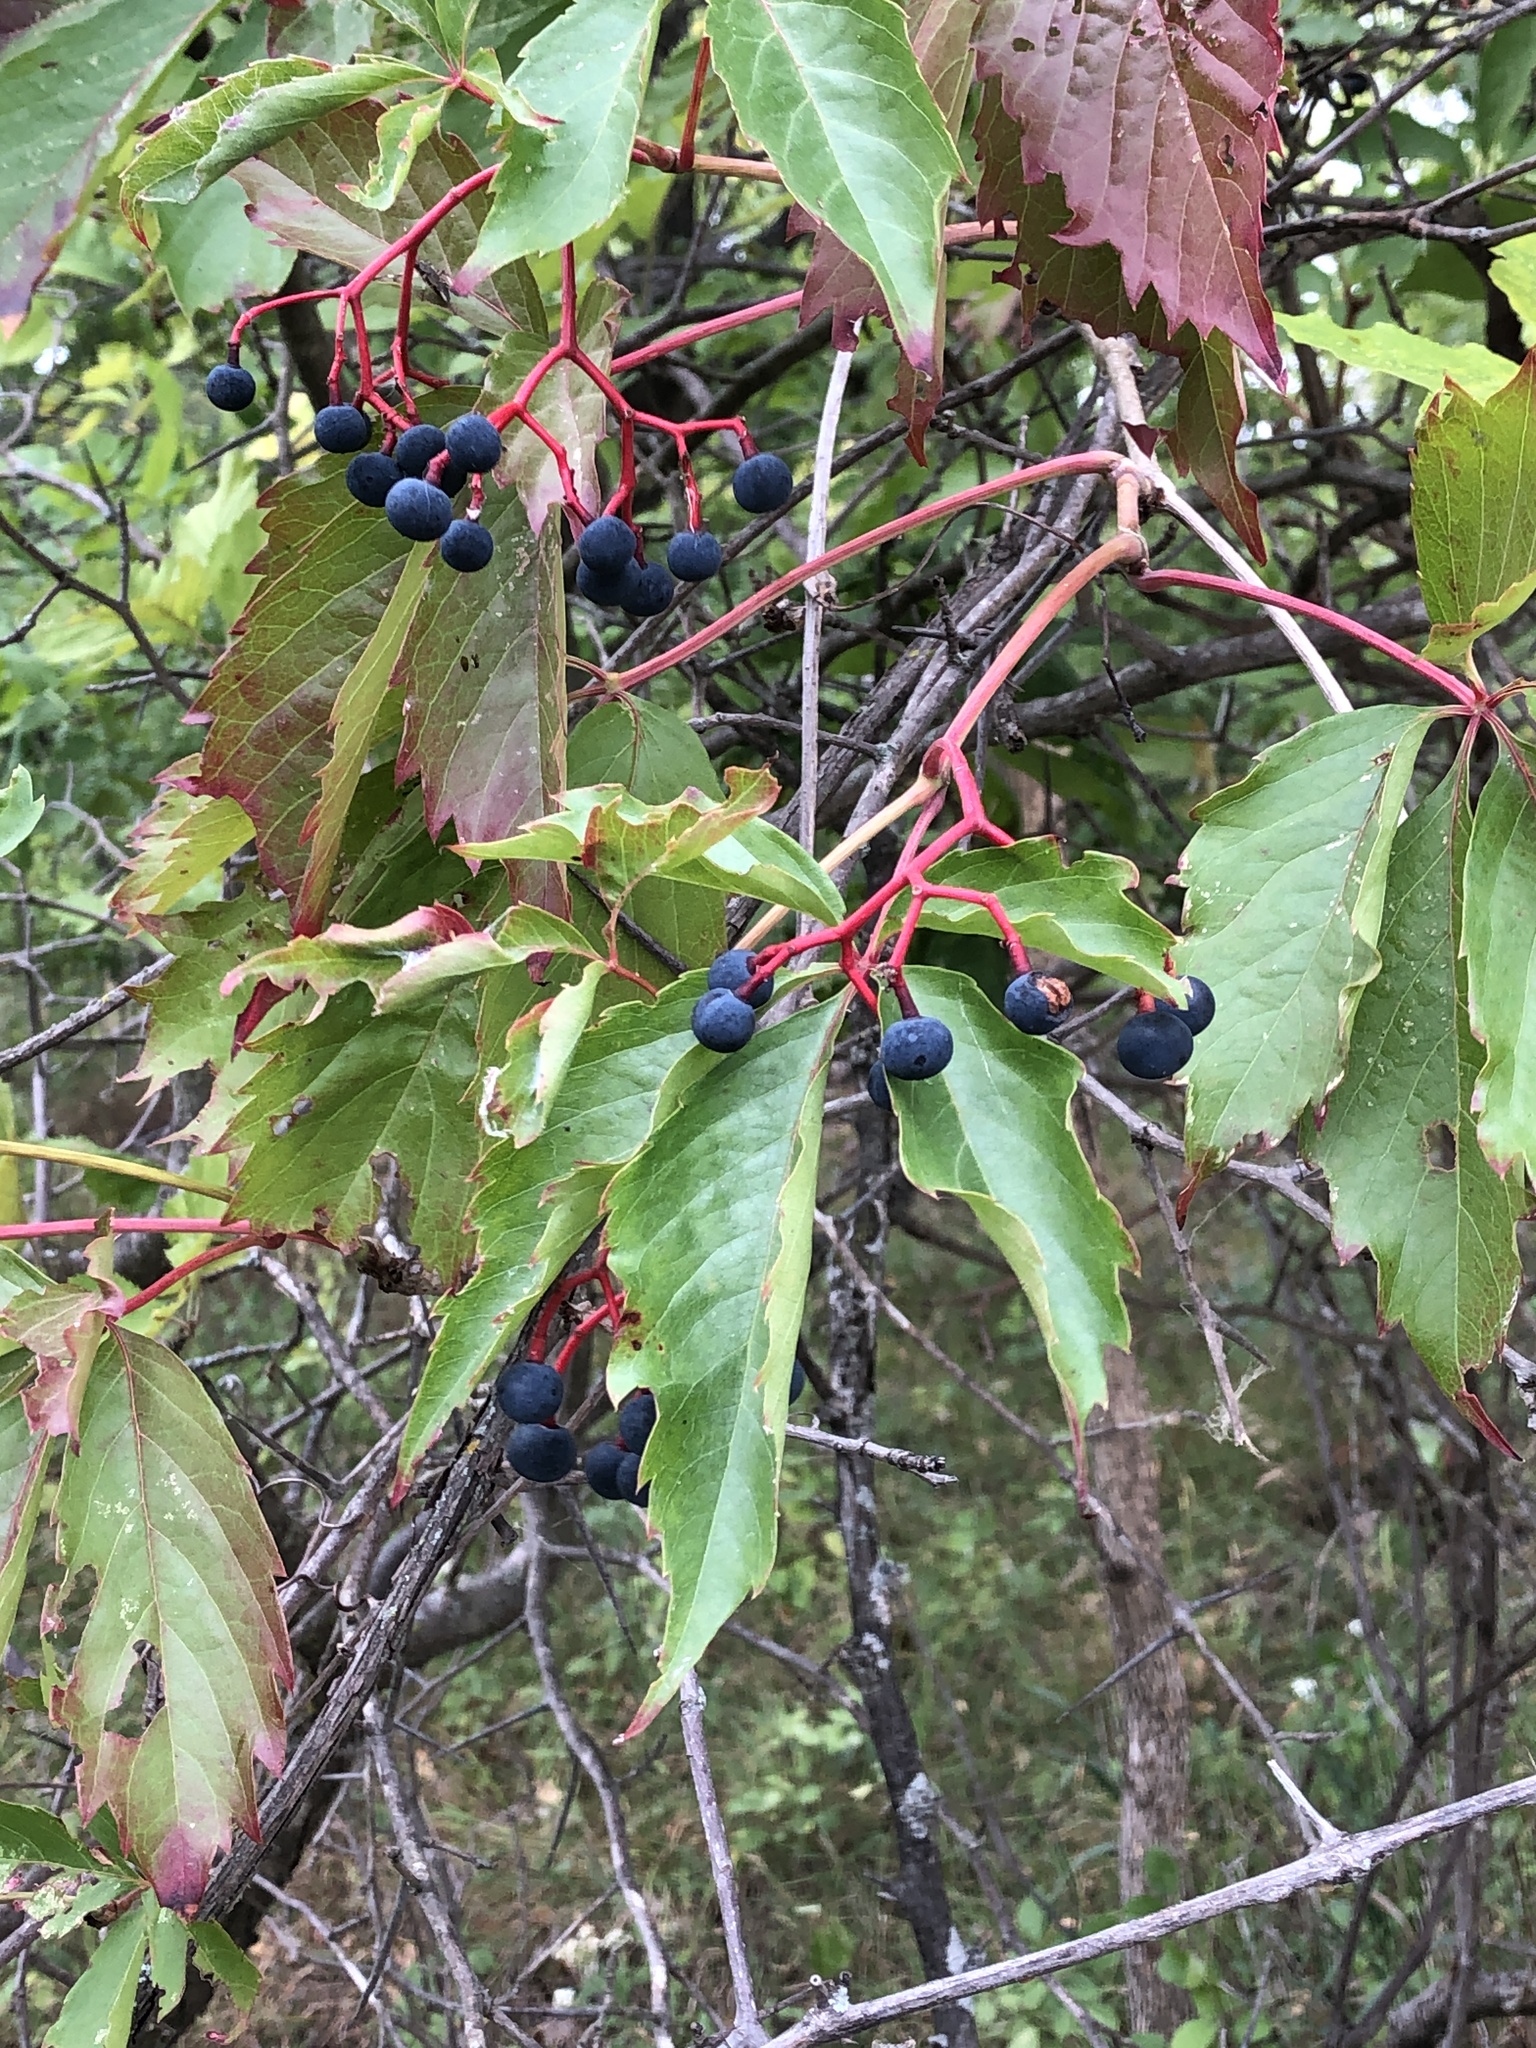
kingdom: Plantae
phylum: Tracheophyta
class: Magnoliopsida
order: Vitales
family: Vitaceae
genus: Parthenocissus
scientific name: Parthenocissus inserta
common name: False virginia-creeper
